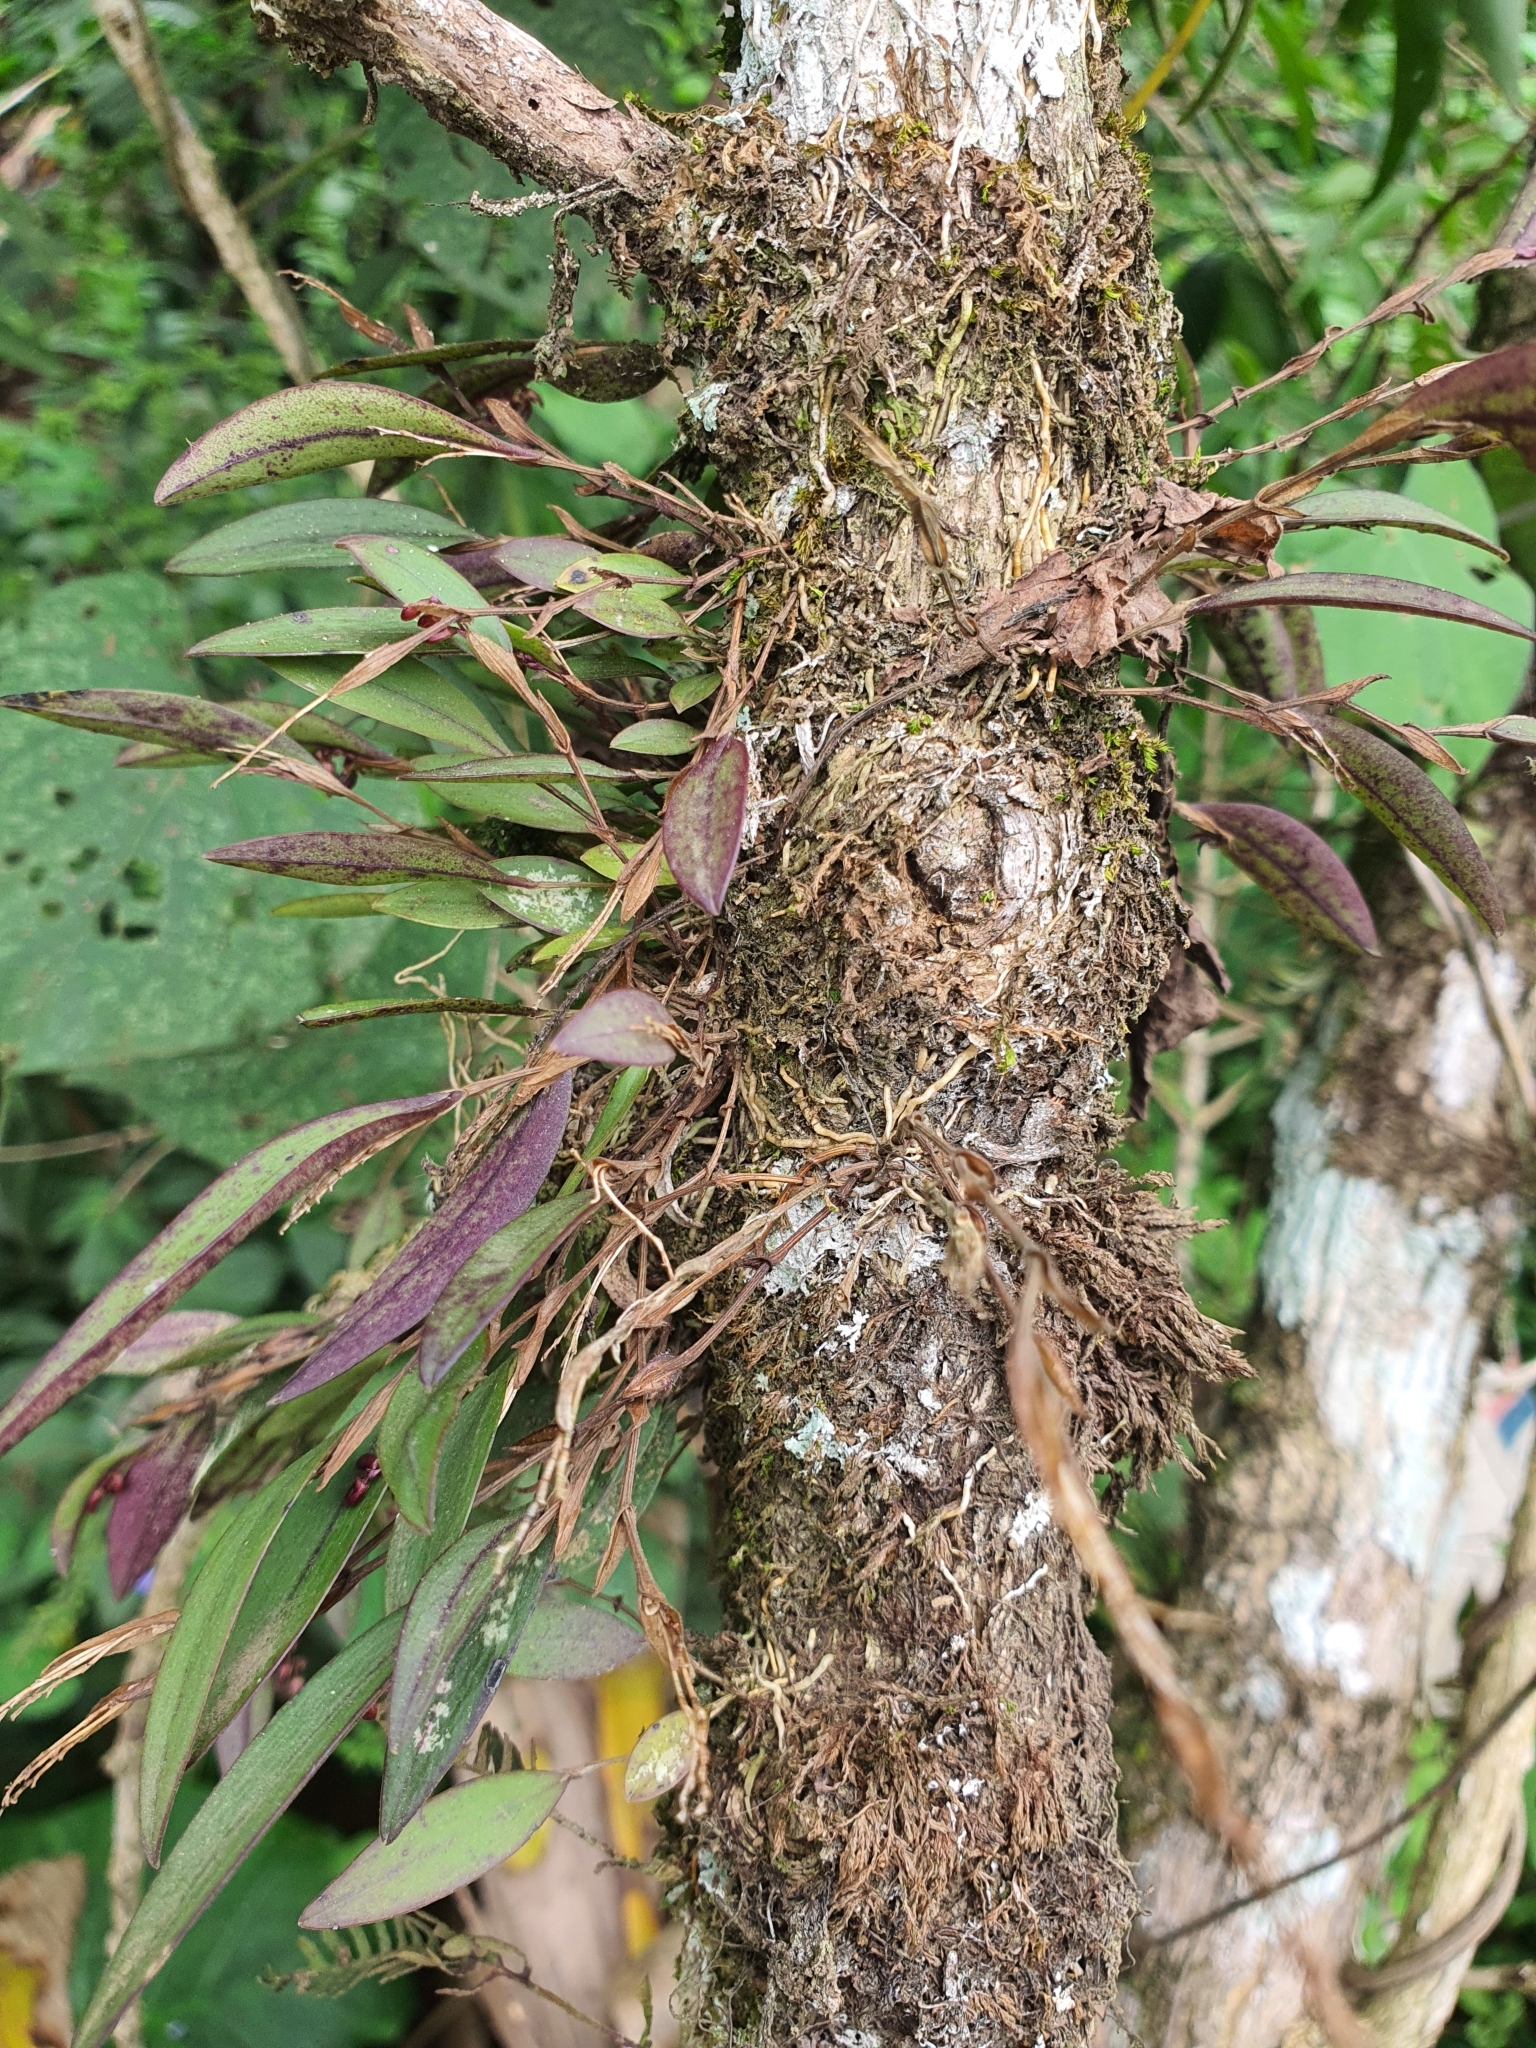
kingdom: Plantae
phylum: Tracheophyta
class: Liliopsida
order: Asparagales
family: Orchidaceae
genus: Trichosalpinx
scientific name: Trichosalpinx ciliaris
